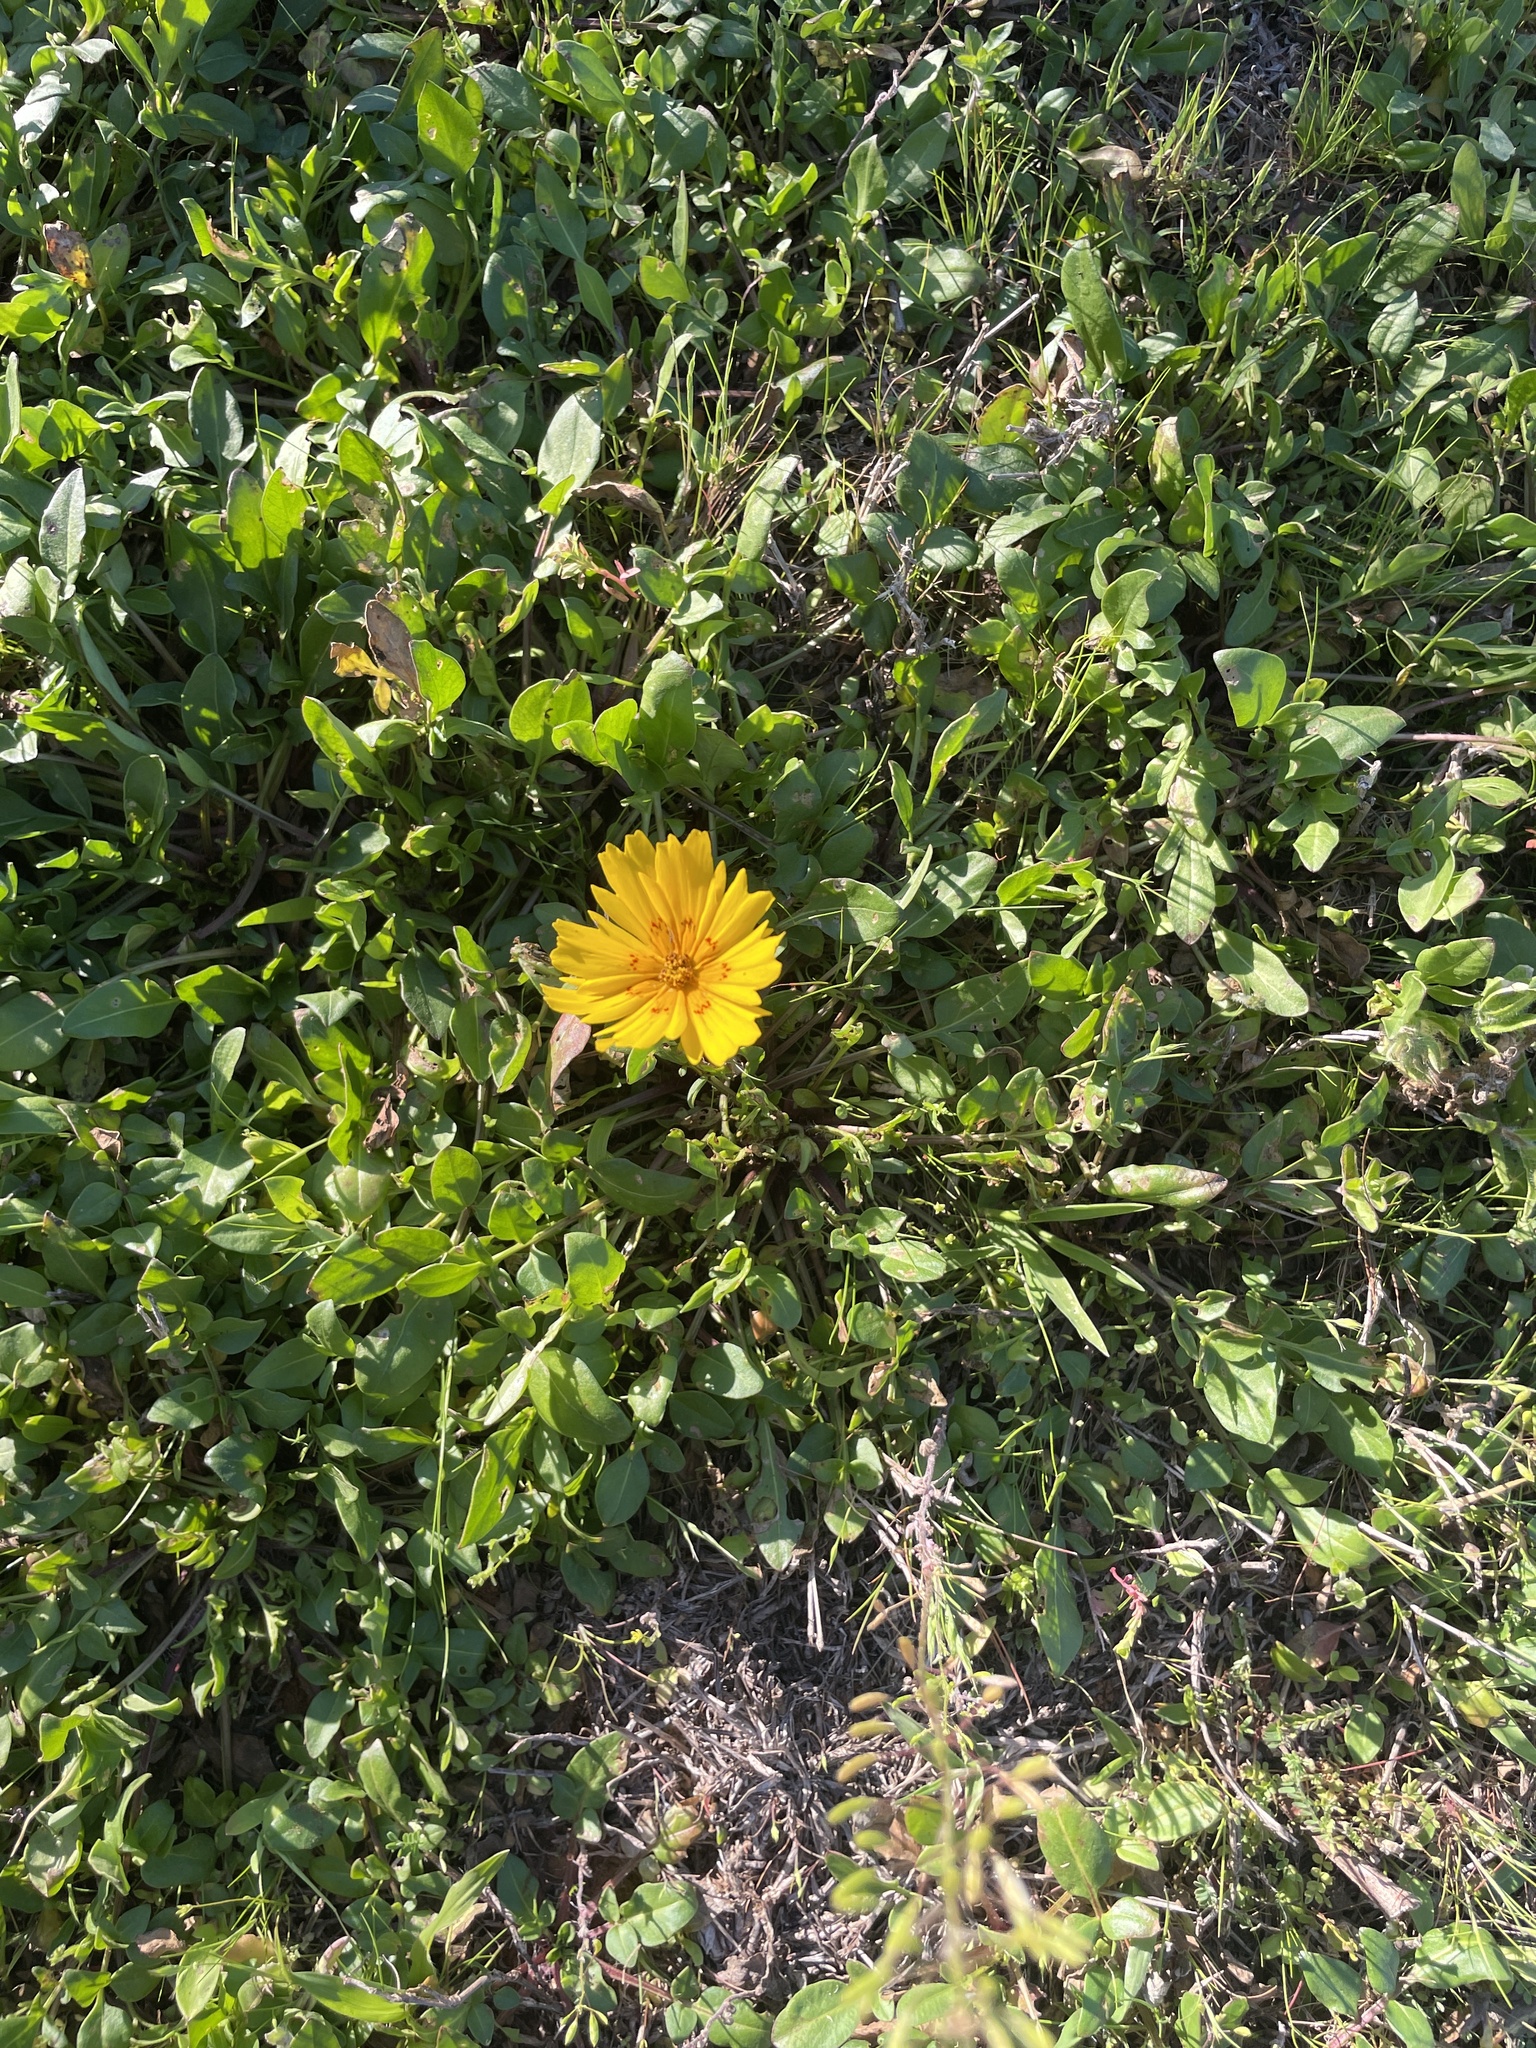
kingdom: Plantae
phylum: Tracheophyta
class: Magnoliopsida
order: Asterales
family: Asteraceae
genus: Coreopsis
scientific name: Coreopsis nuecensis
